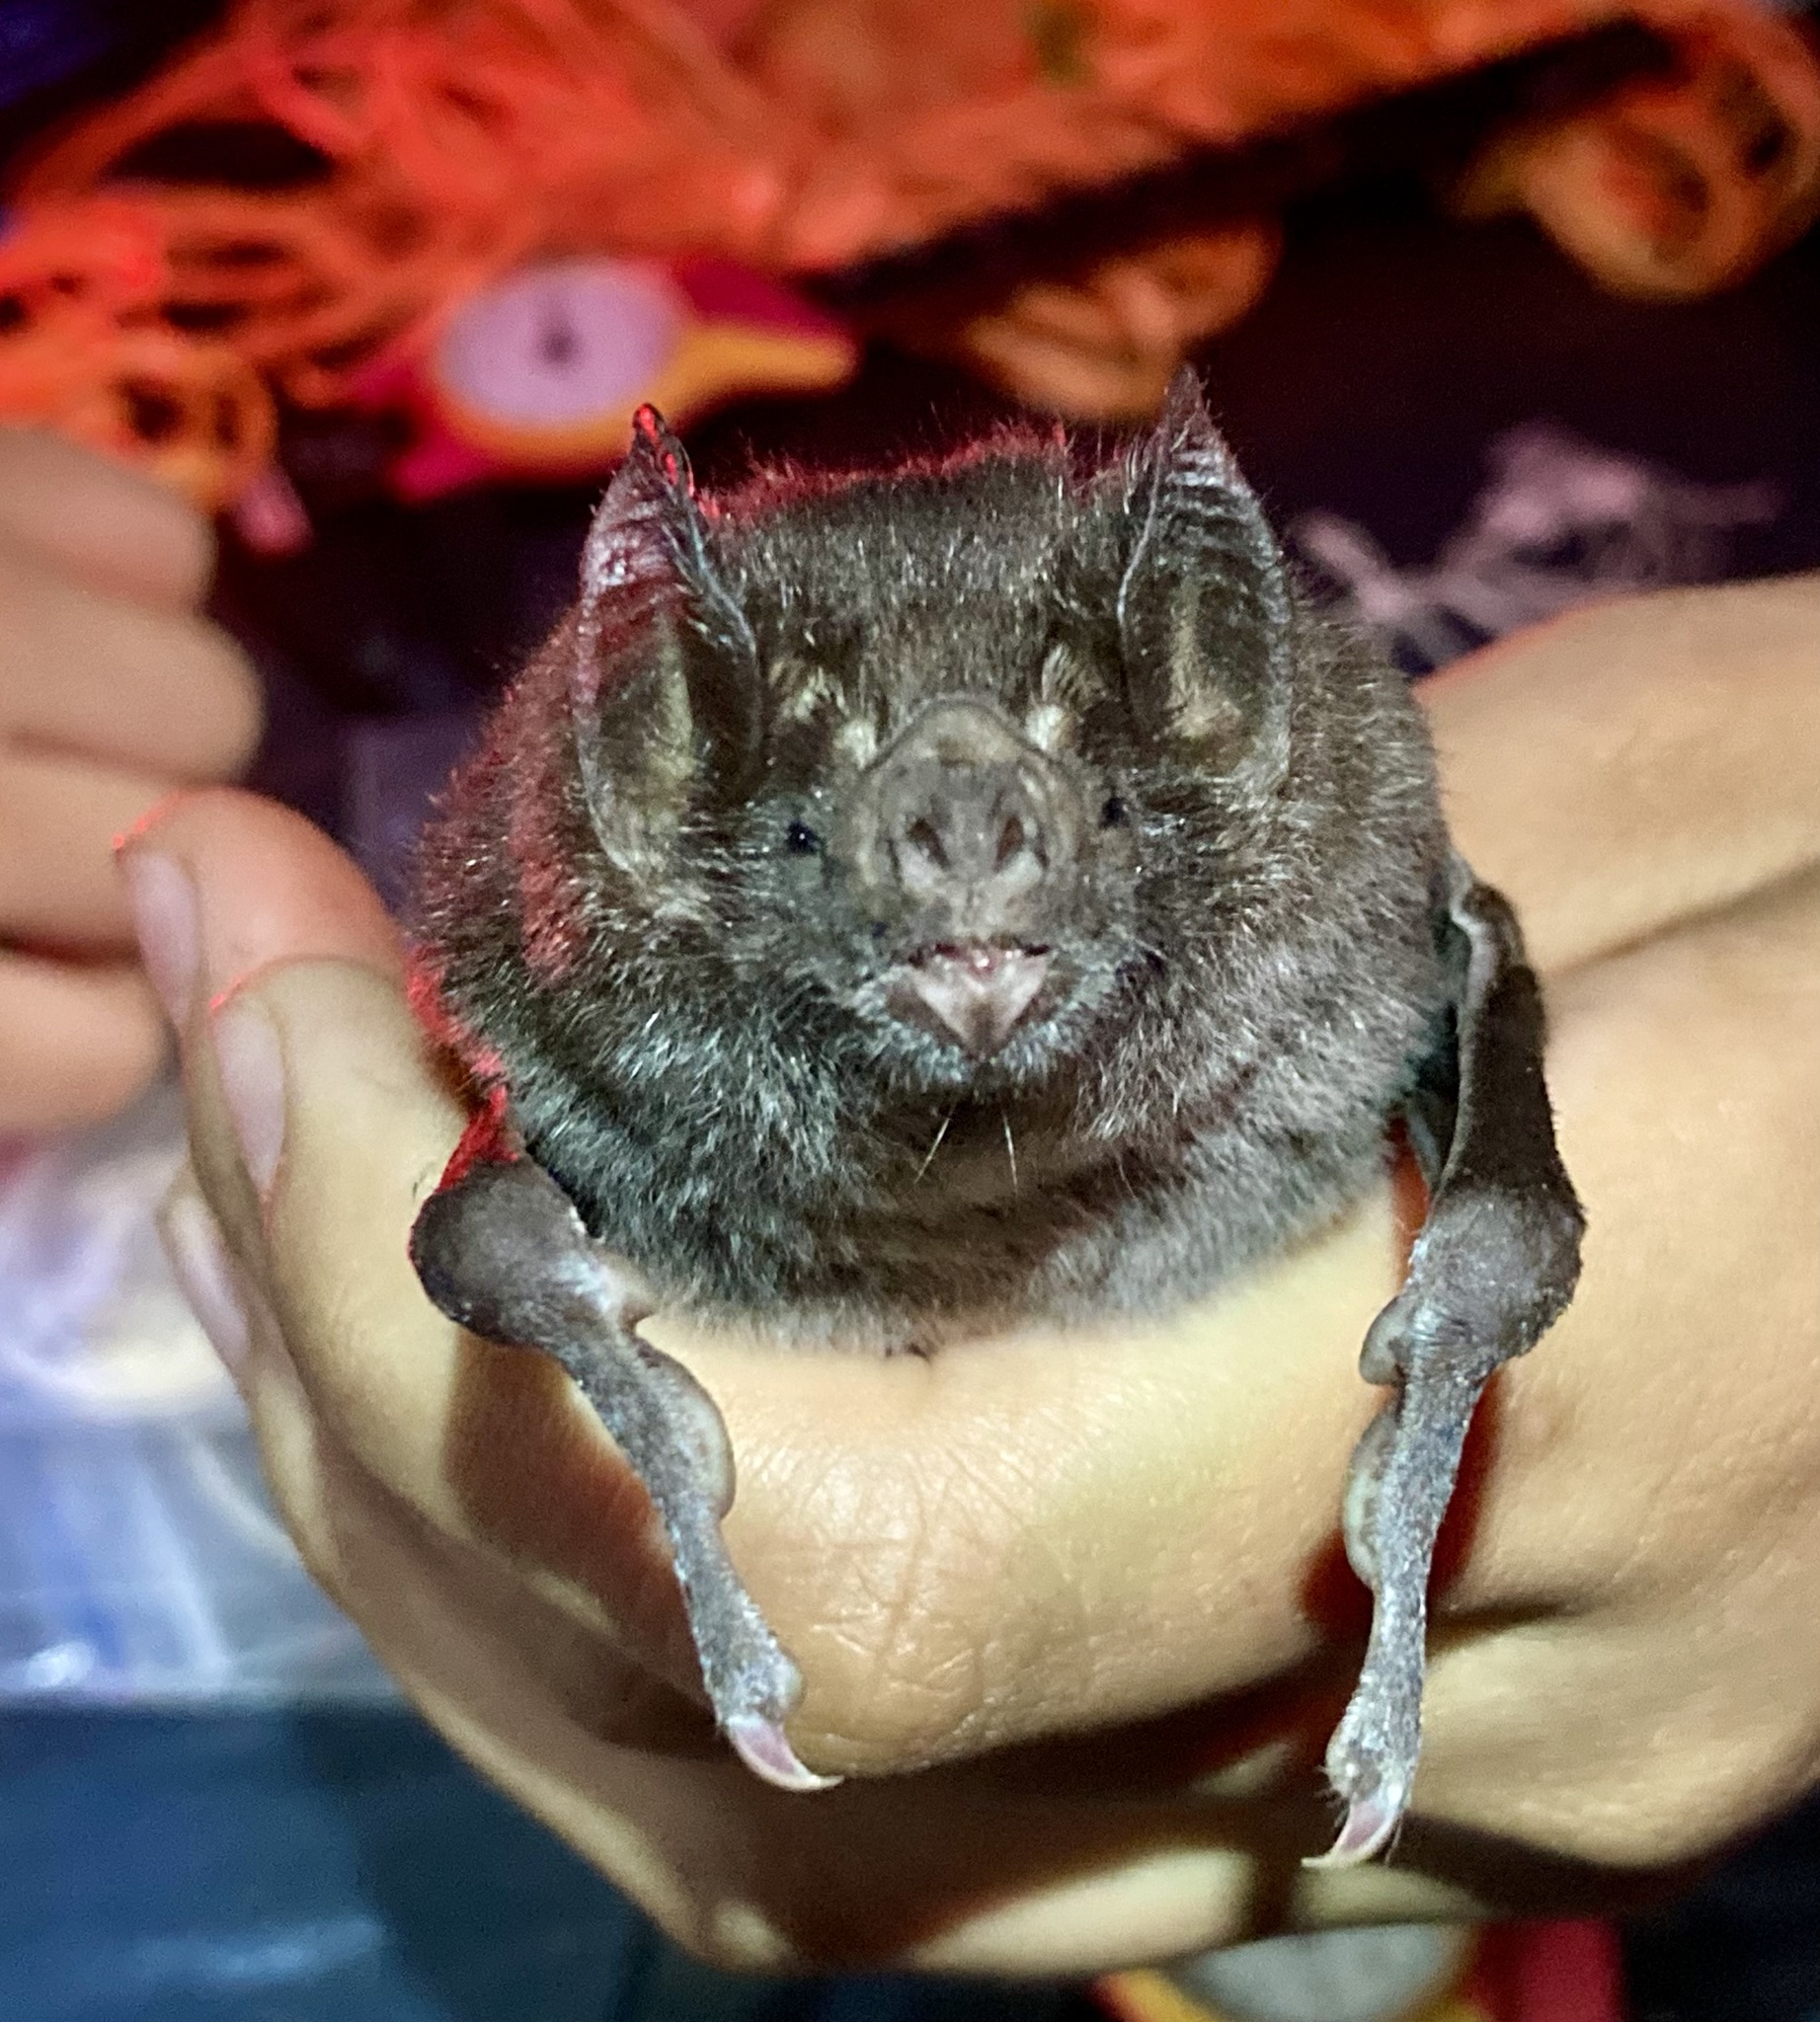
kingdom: Animalia
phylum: Chordata
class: Mammalia
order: Chiroptera
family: Phyllostomidae
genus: Desmodus
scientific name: Desmodus rotundus
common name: Common vampire bat
